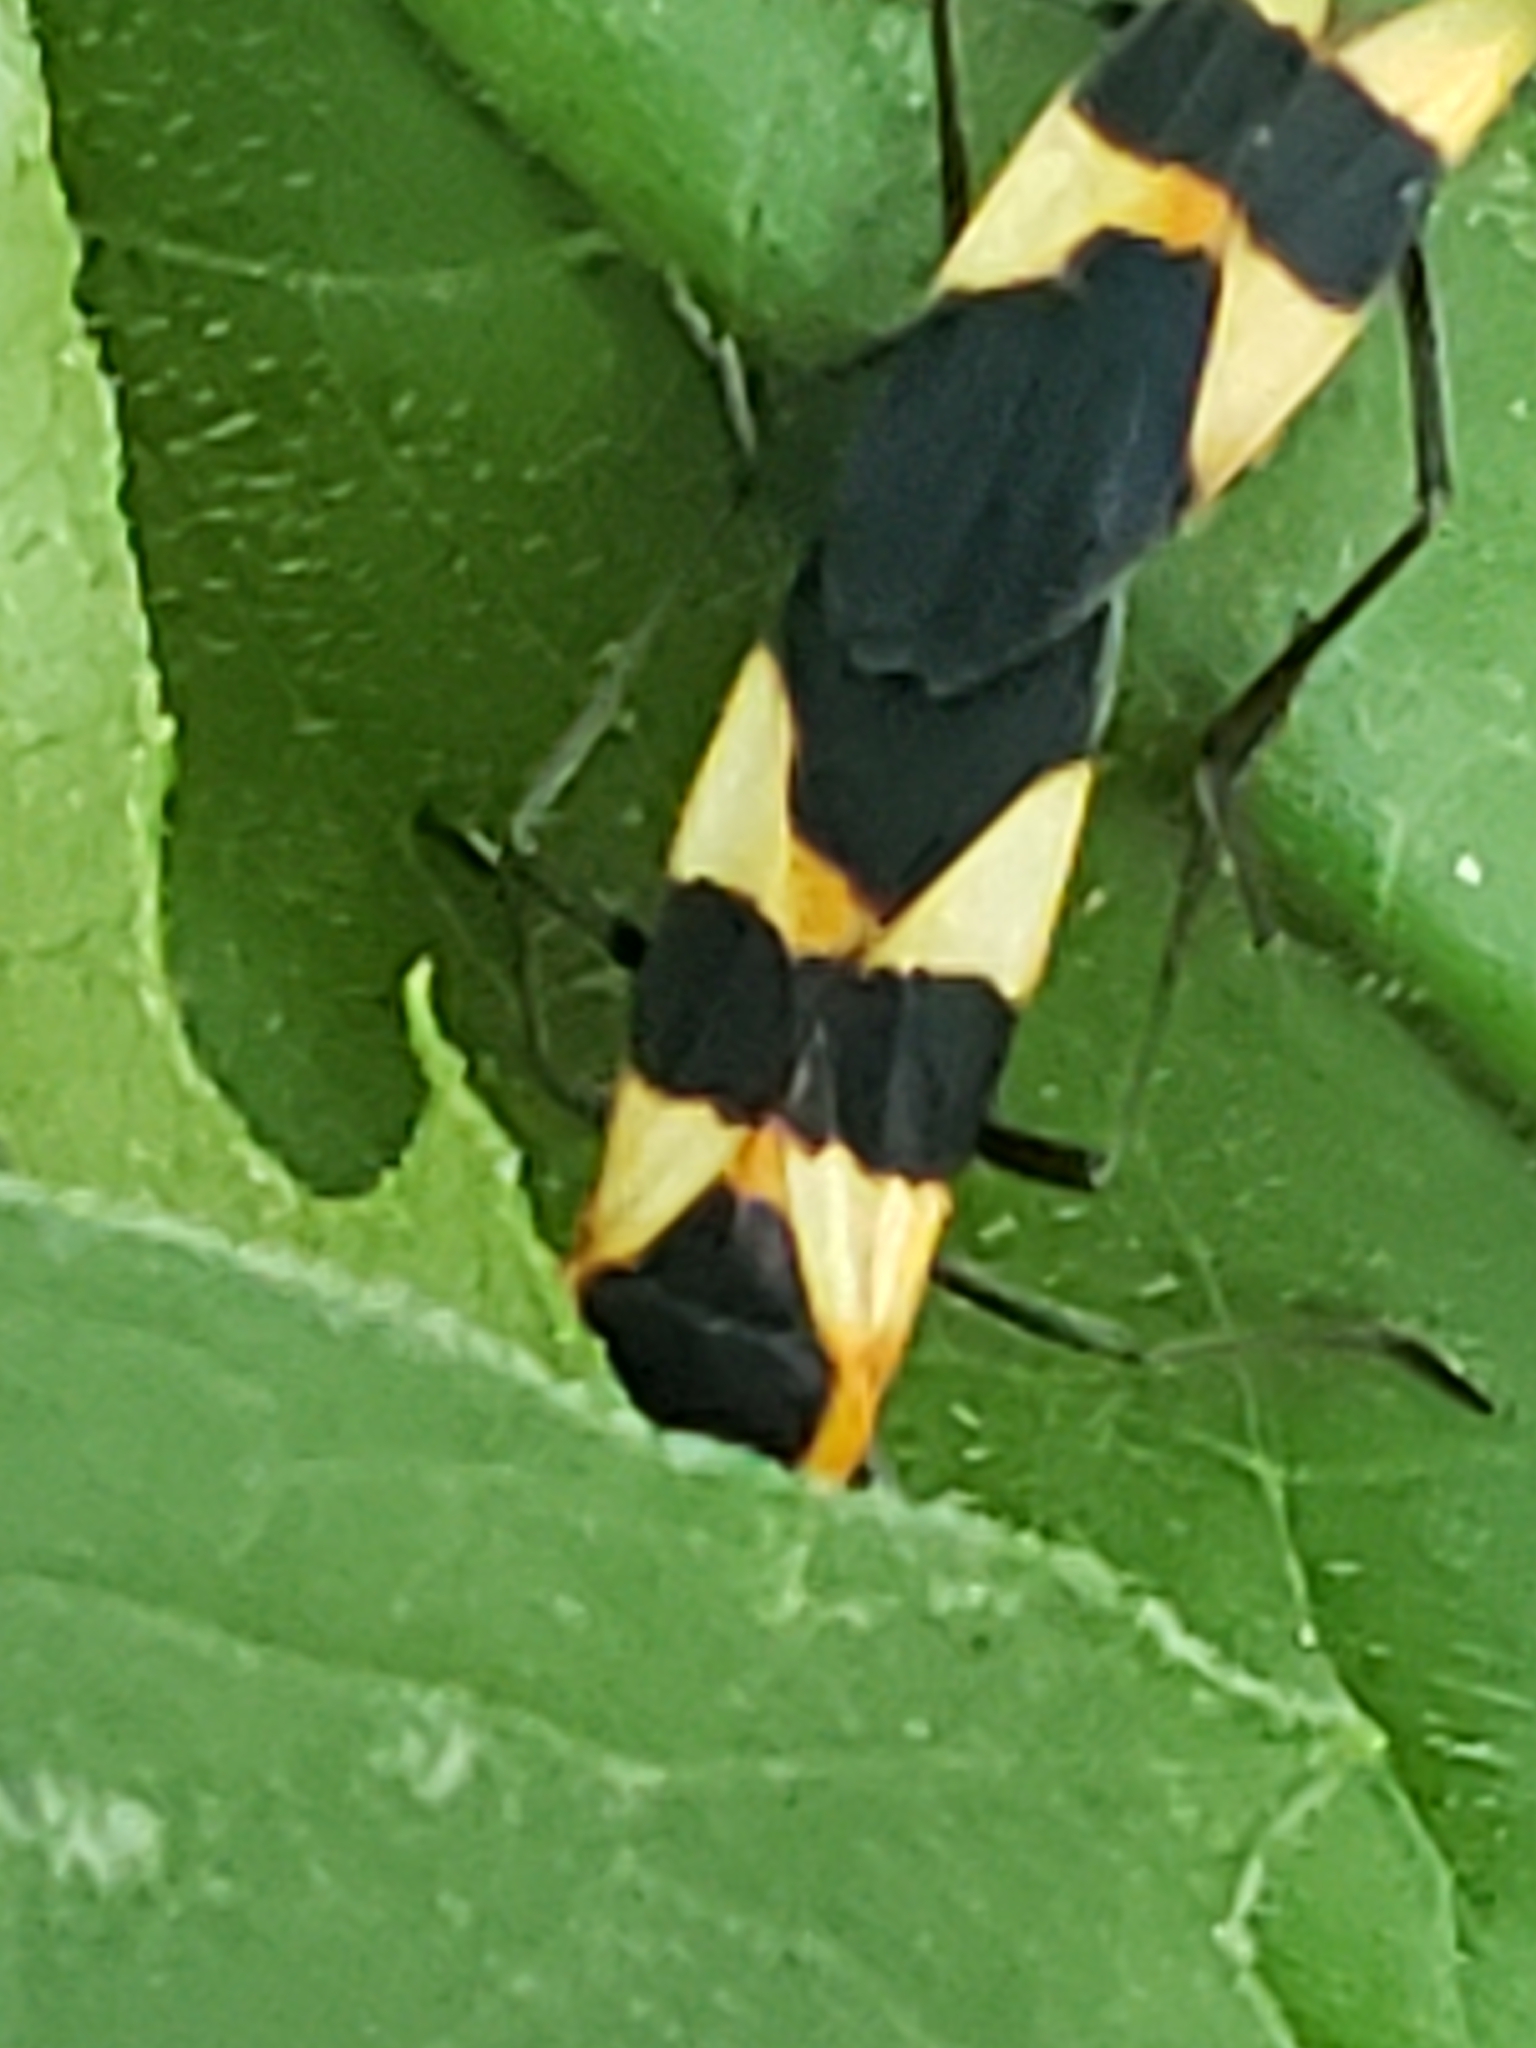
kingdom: Animalia
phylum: Arthropoda
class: Insecta
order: Hemiptera
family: Lygaeidae
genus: Oncopeltus
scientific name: Oncopeltus fasciatus
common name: Large milkweed bug
